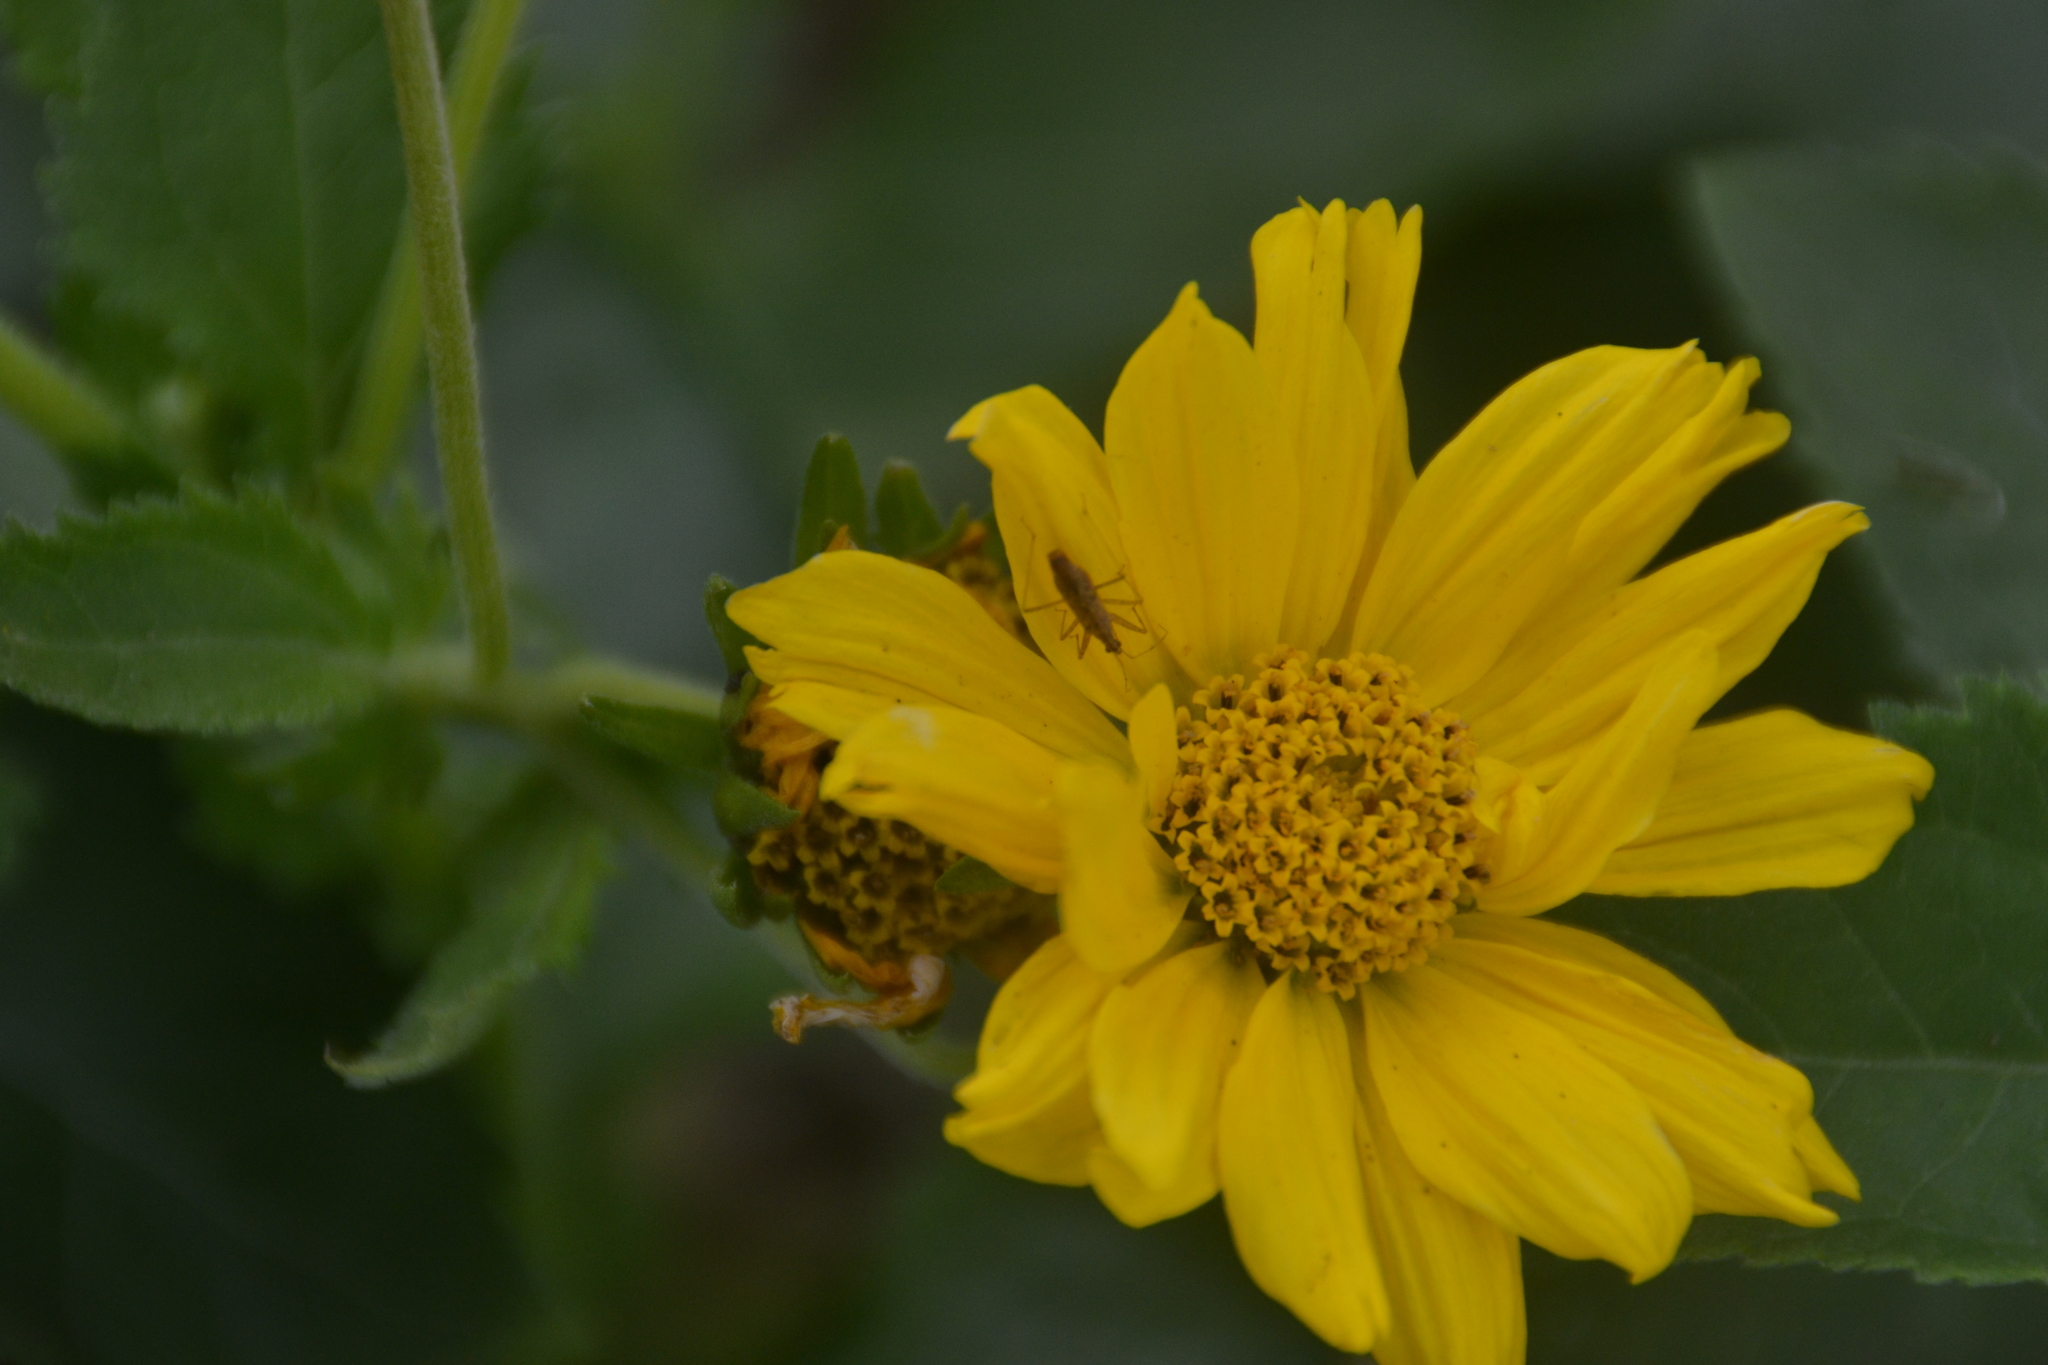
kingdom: Animalia
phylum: Arthropoda
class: Insecta
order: Hemiptera
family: Nabidae
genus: Nabis
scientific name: Nabis
